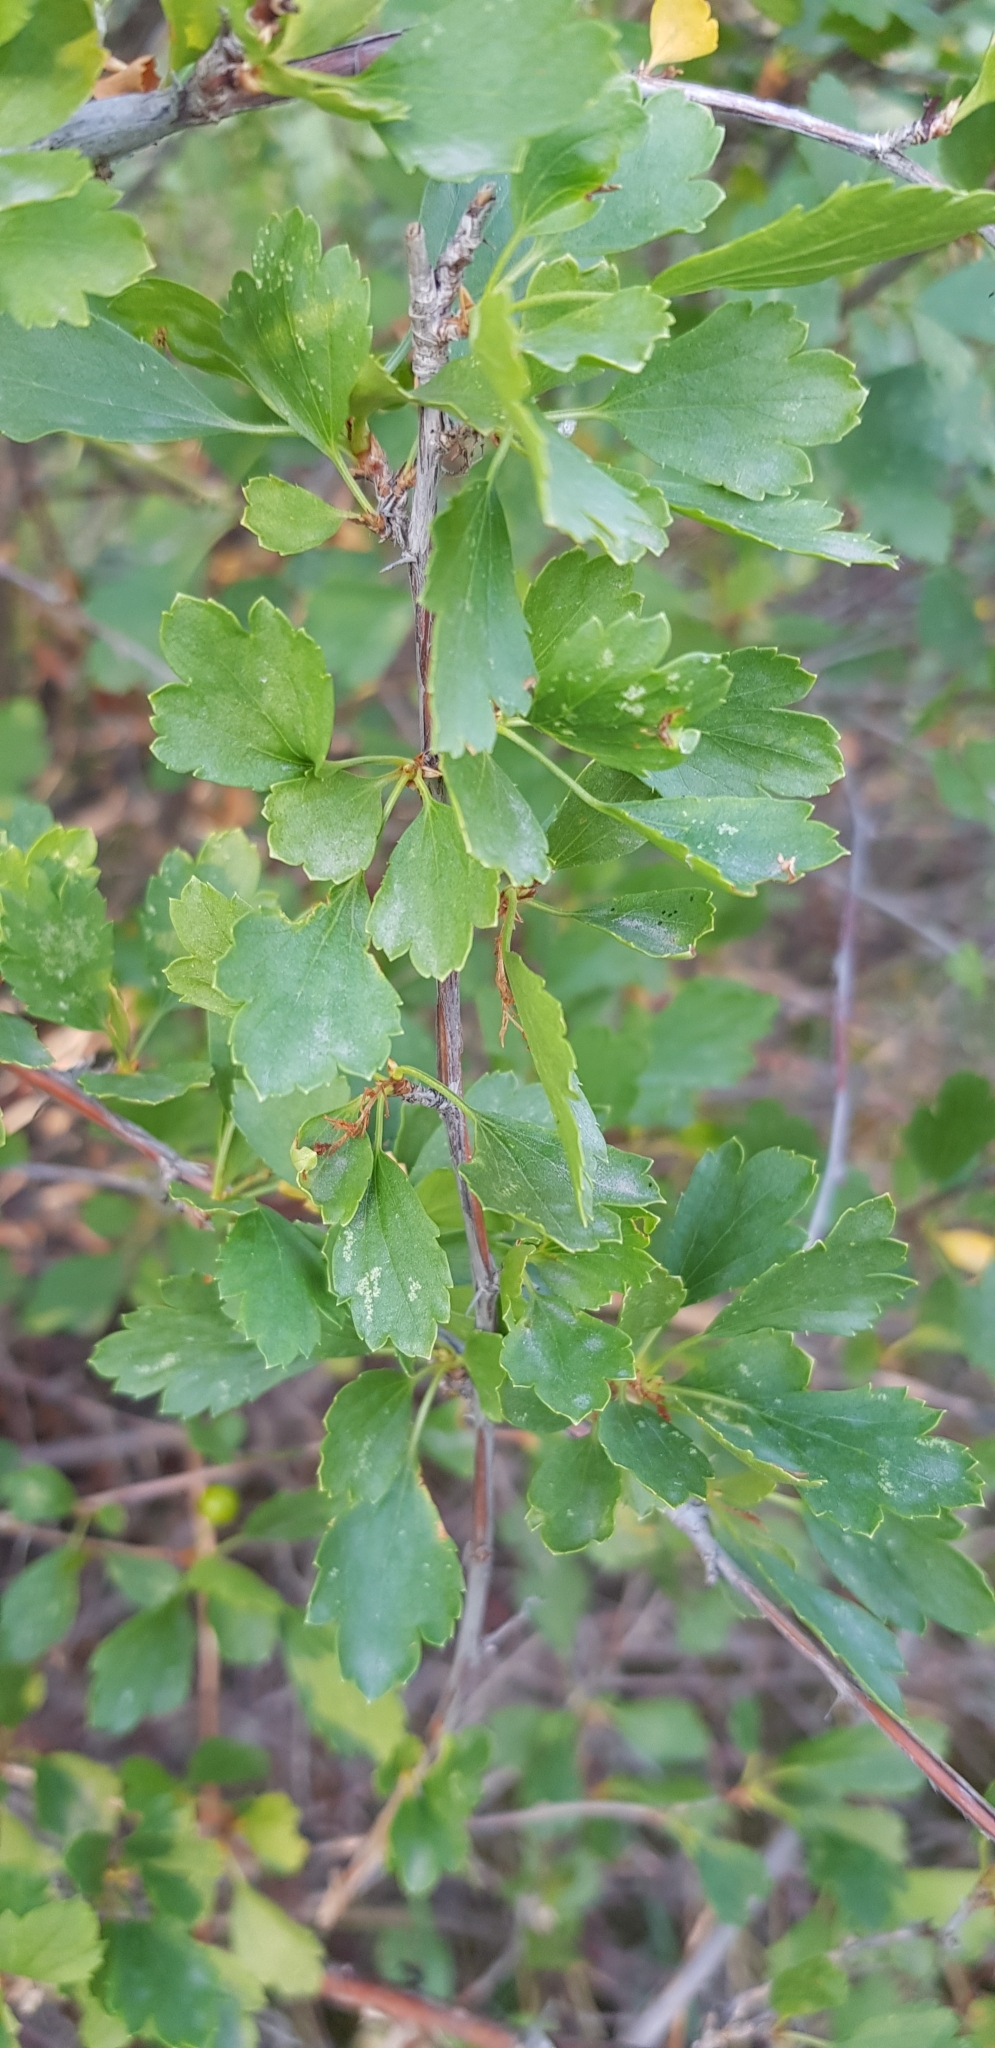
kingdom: Plantae
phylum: Tracheophyta
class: Magnoliopsida
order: Saxifragales
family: Grossulariaceae
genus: Ribes
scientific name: Ribes diacanthum
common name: Siberian currant
